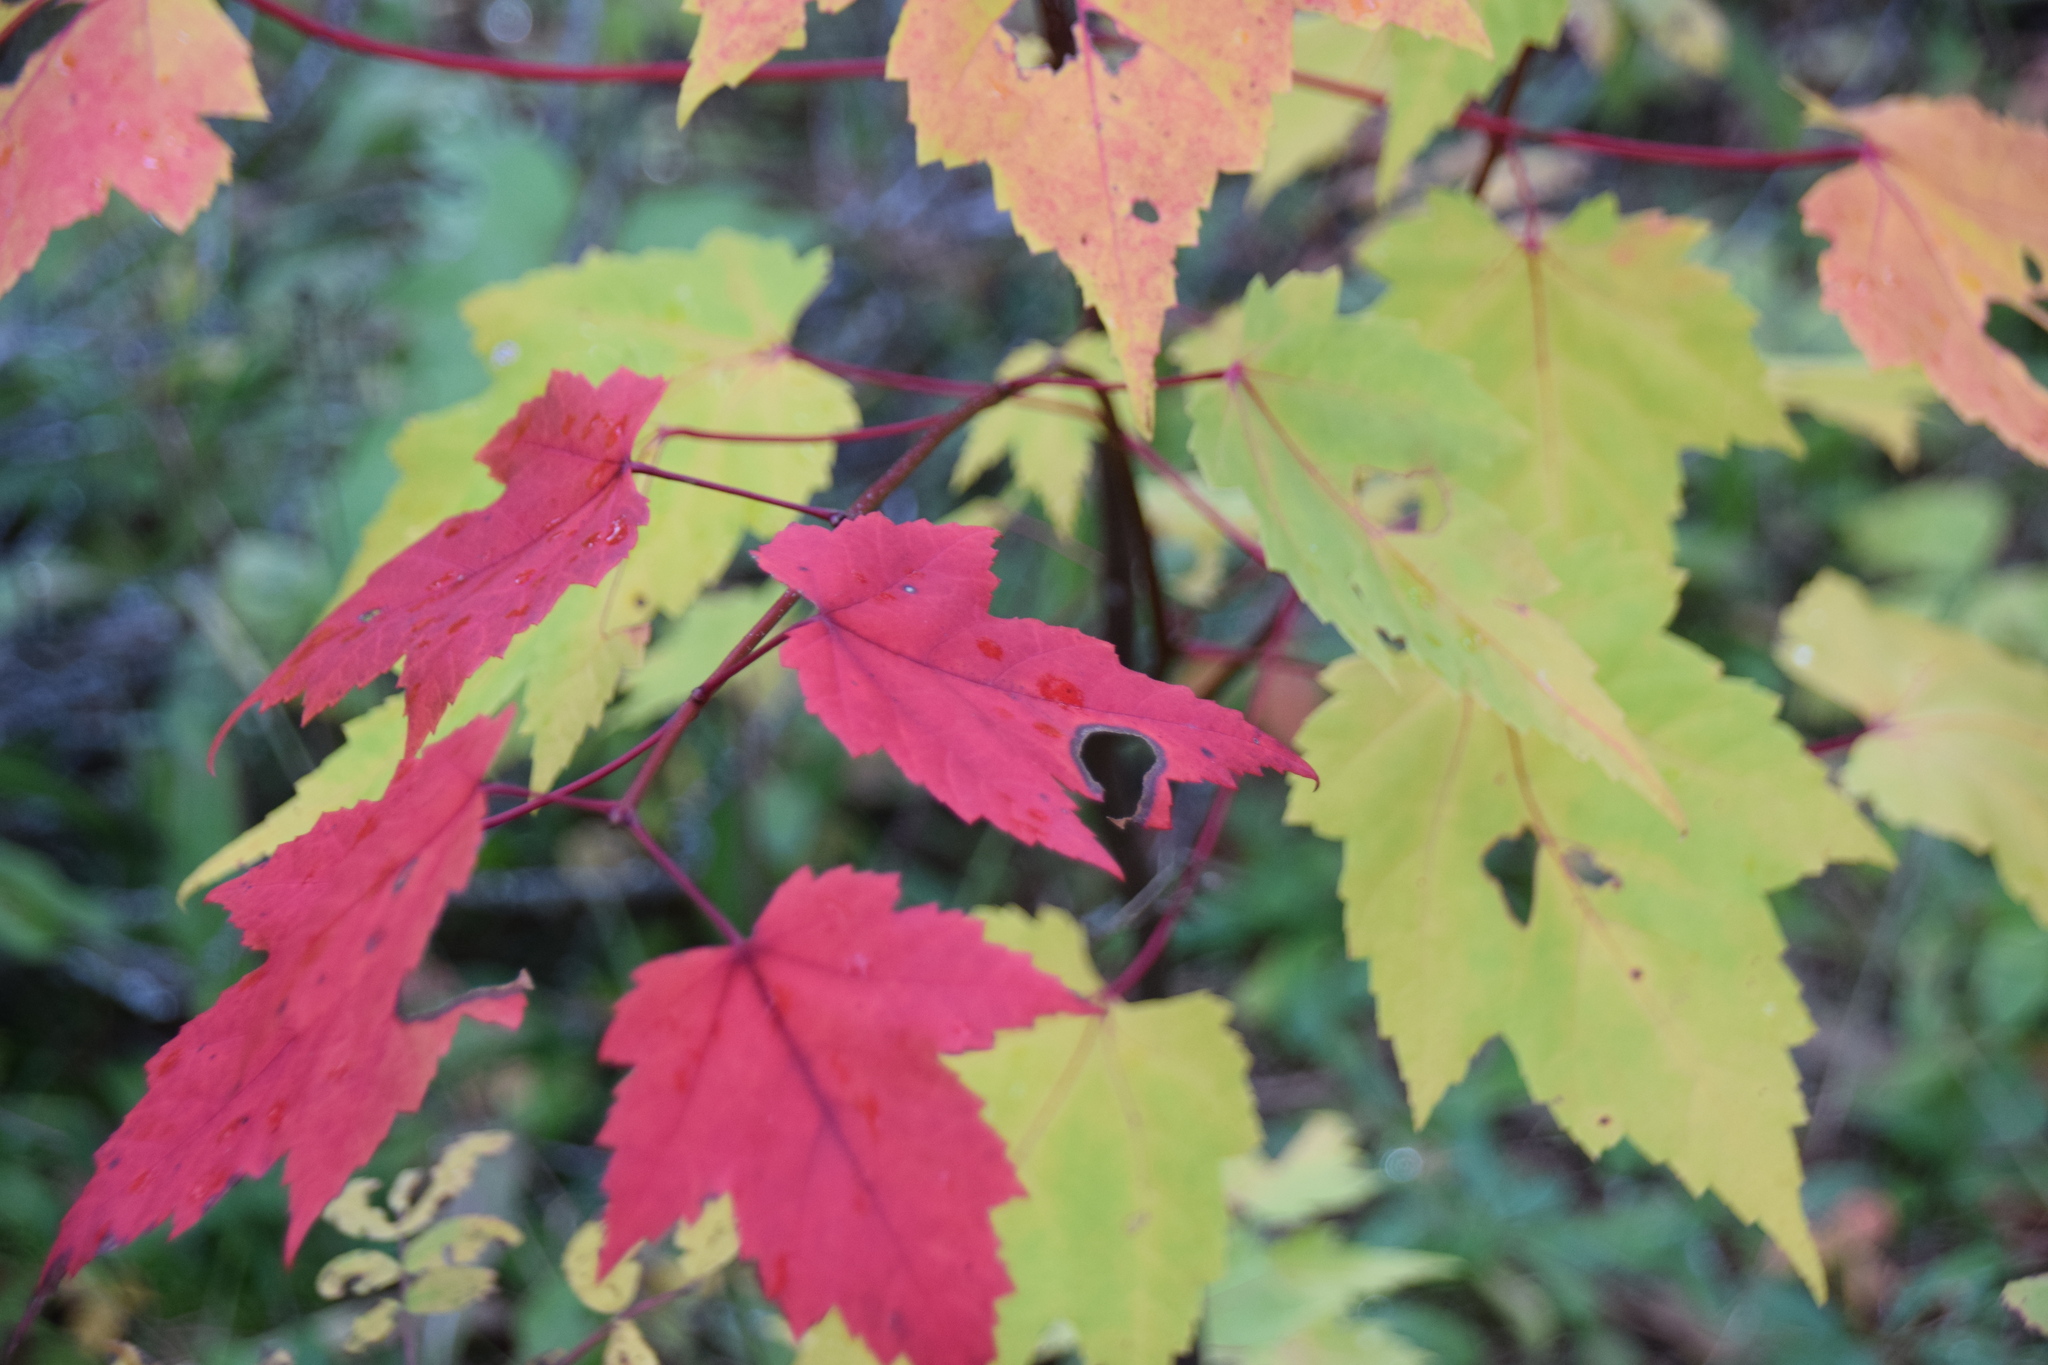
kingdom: Plantae
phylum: Tracheophyta
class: Magnoliopsida
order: Sapindales
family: Sapindaceae
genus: Acer
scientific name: Acer rubrum
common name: Red maple
